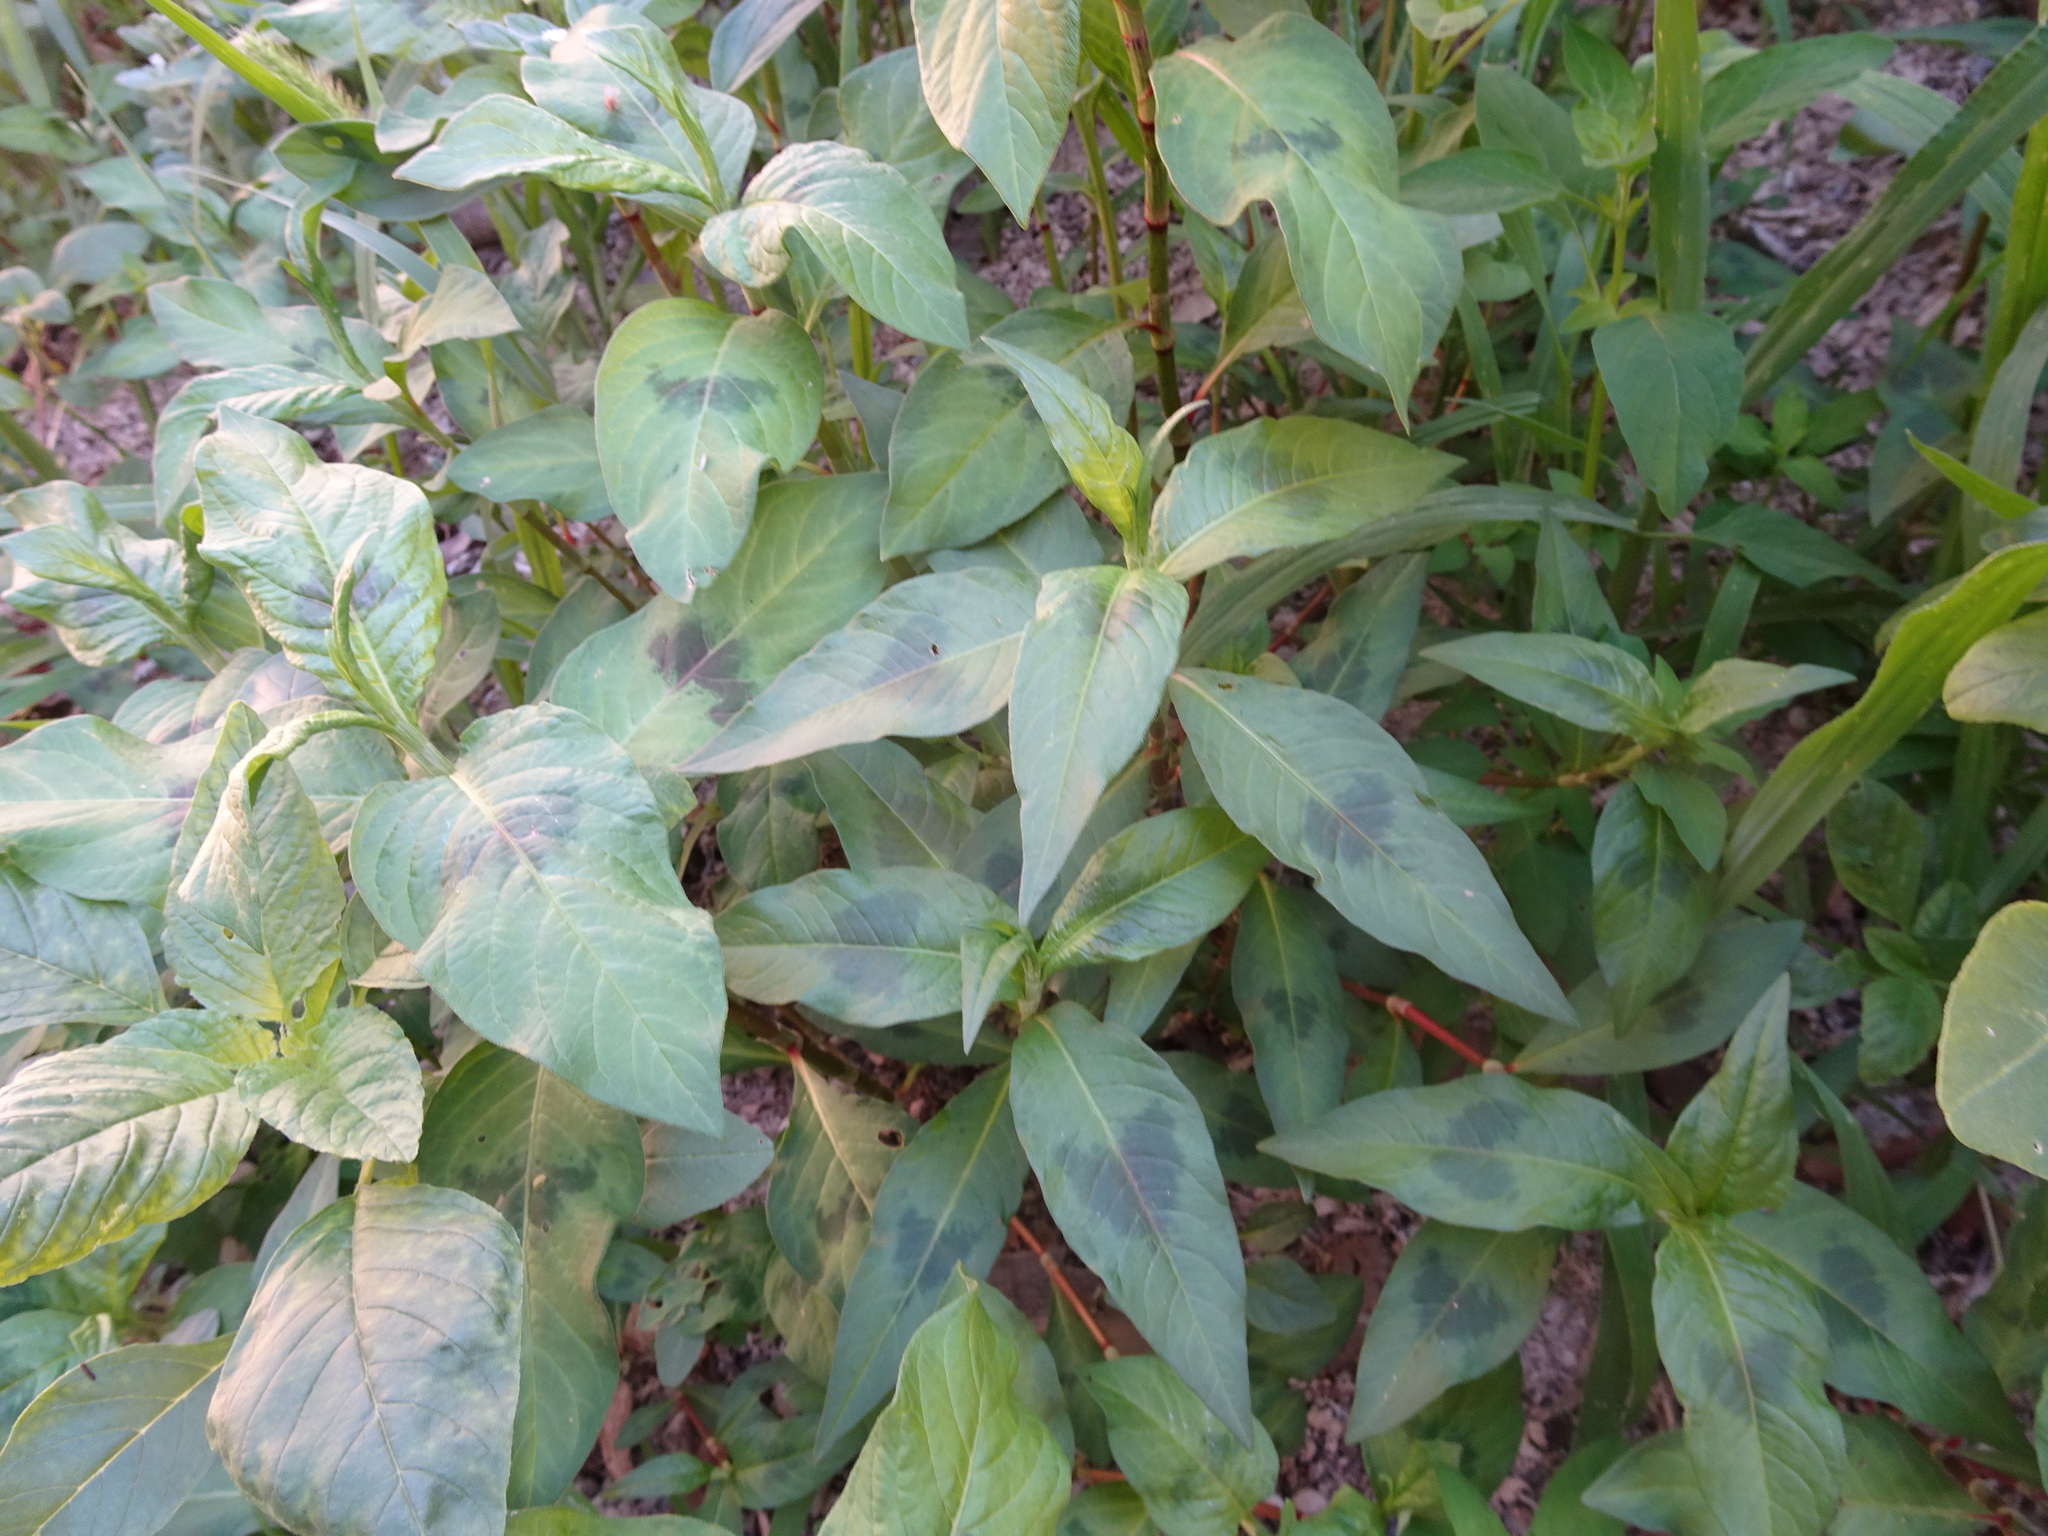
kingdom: Plantae
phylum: Tracheophyta
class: Magnoliopsida
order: Caryophyllales
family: Polygonaceae
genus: Persicaria
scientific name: Persicaria maculosa
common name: Redshank
